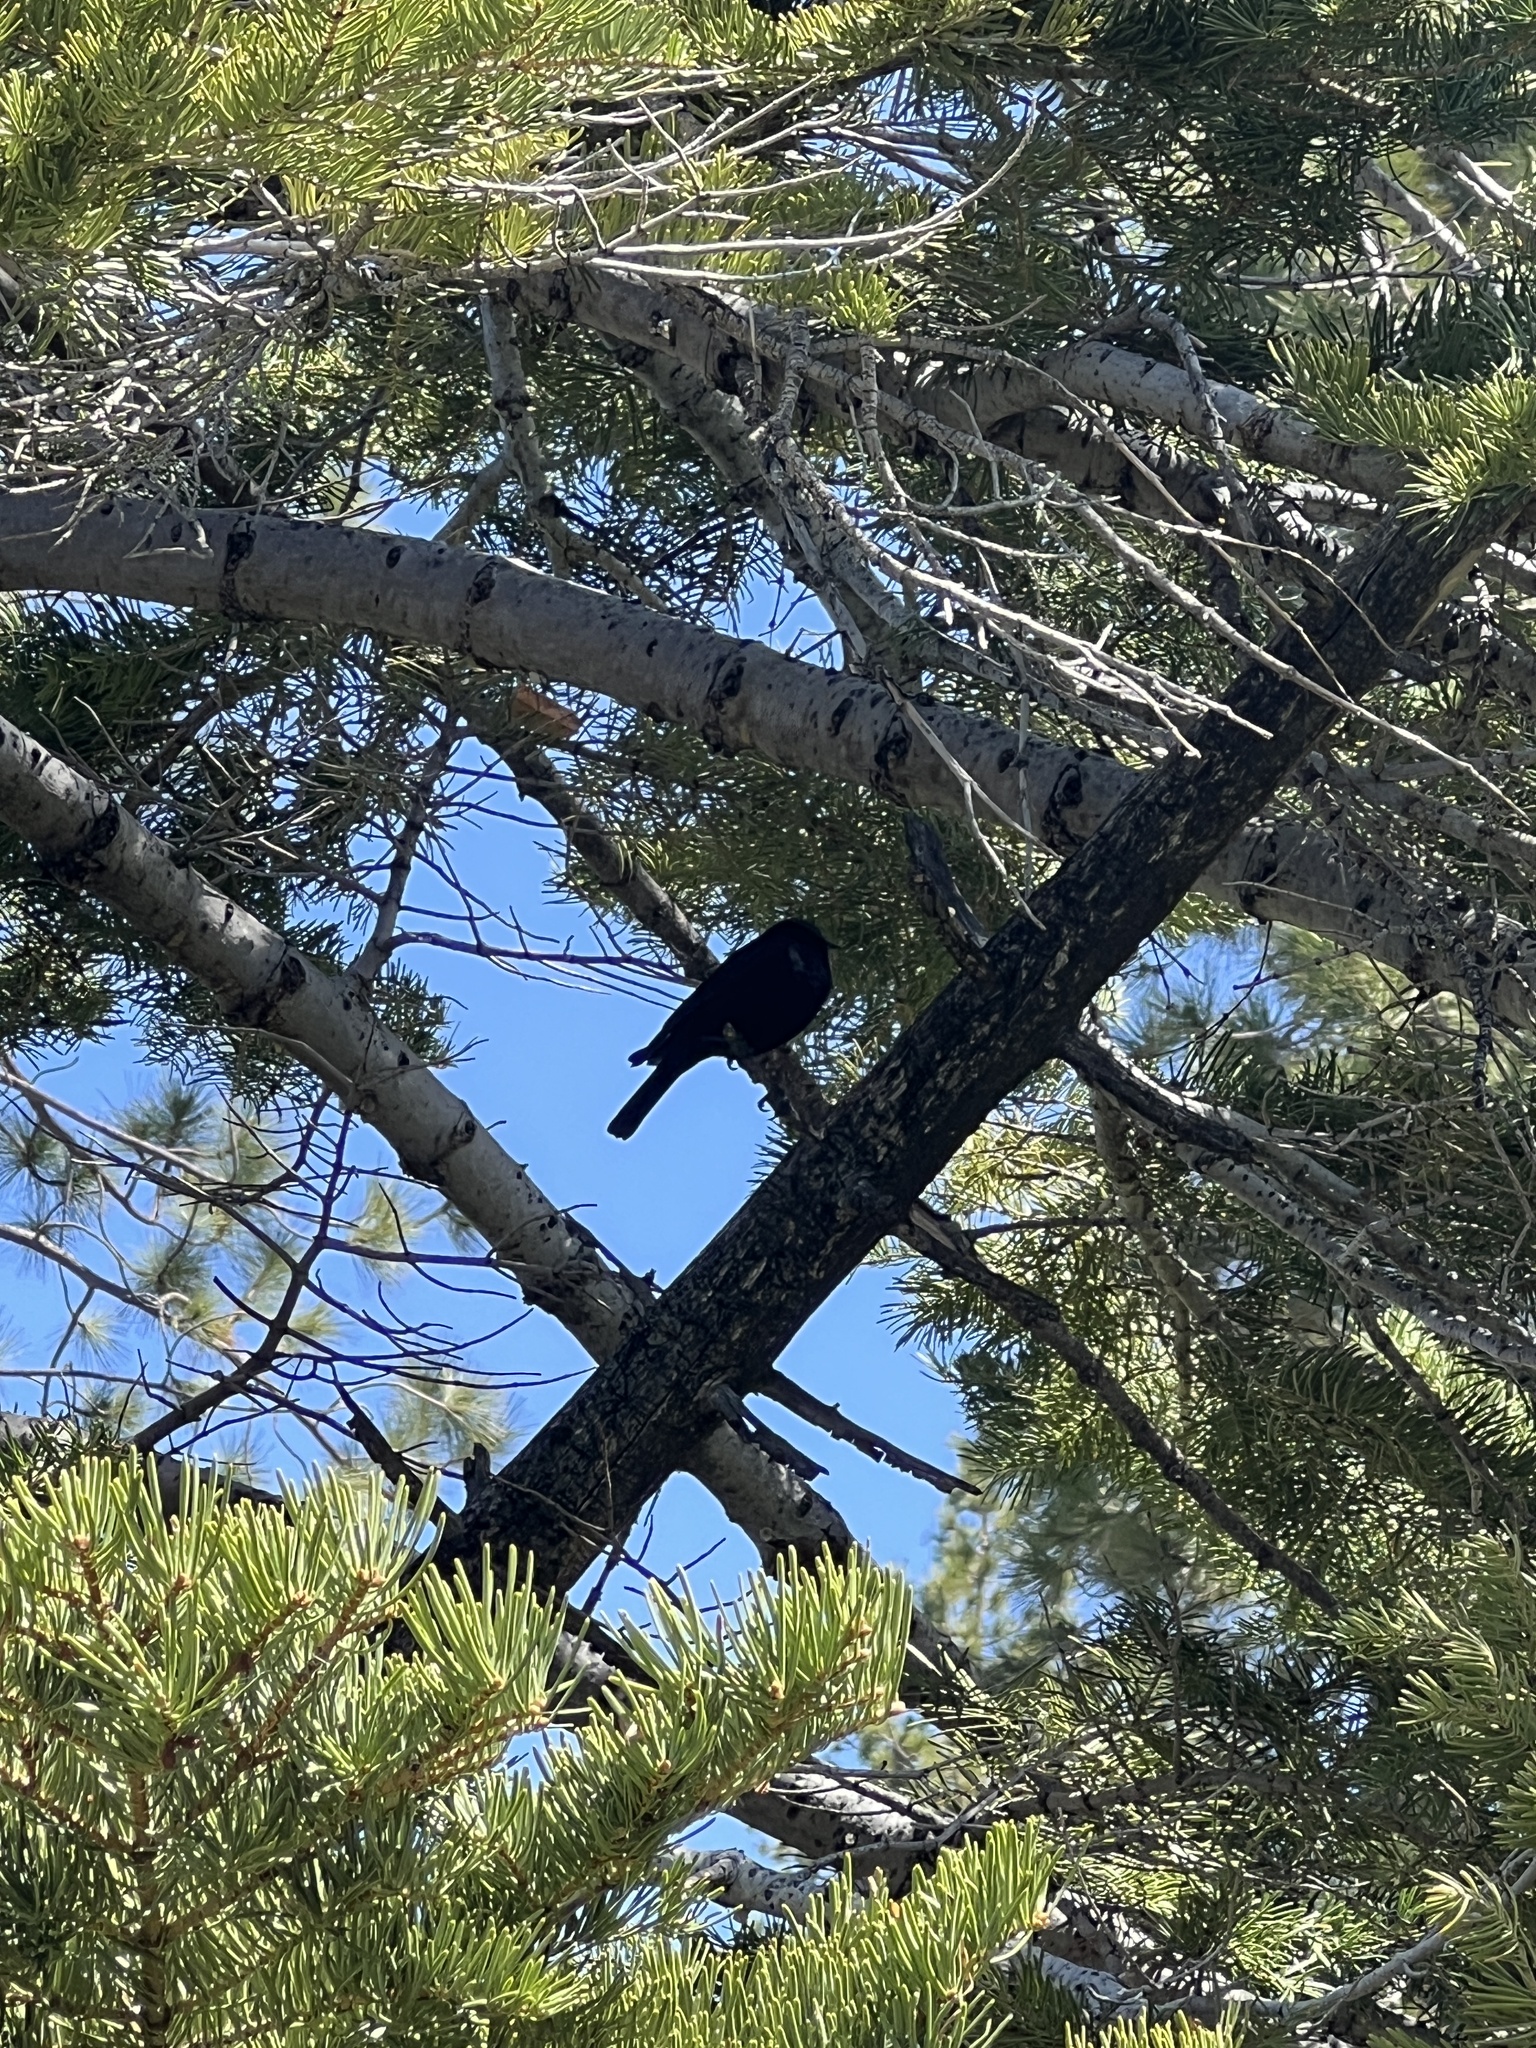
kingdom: Animalia
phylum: Chordata
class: Aves
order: Passeriformes
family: Icteridae
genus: Euphagus
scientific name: Euphagus cyanocephalus
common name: Brewer's blackbird
